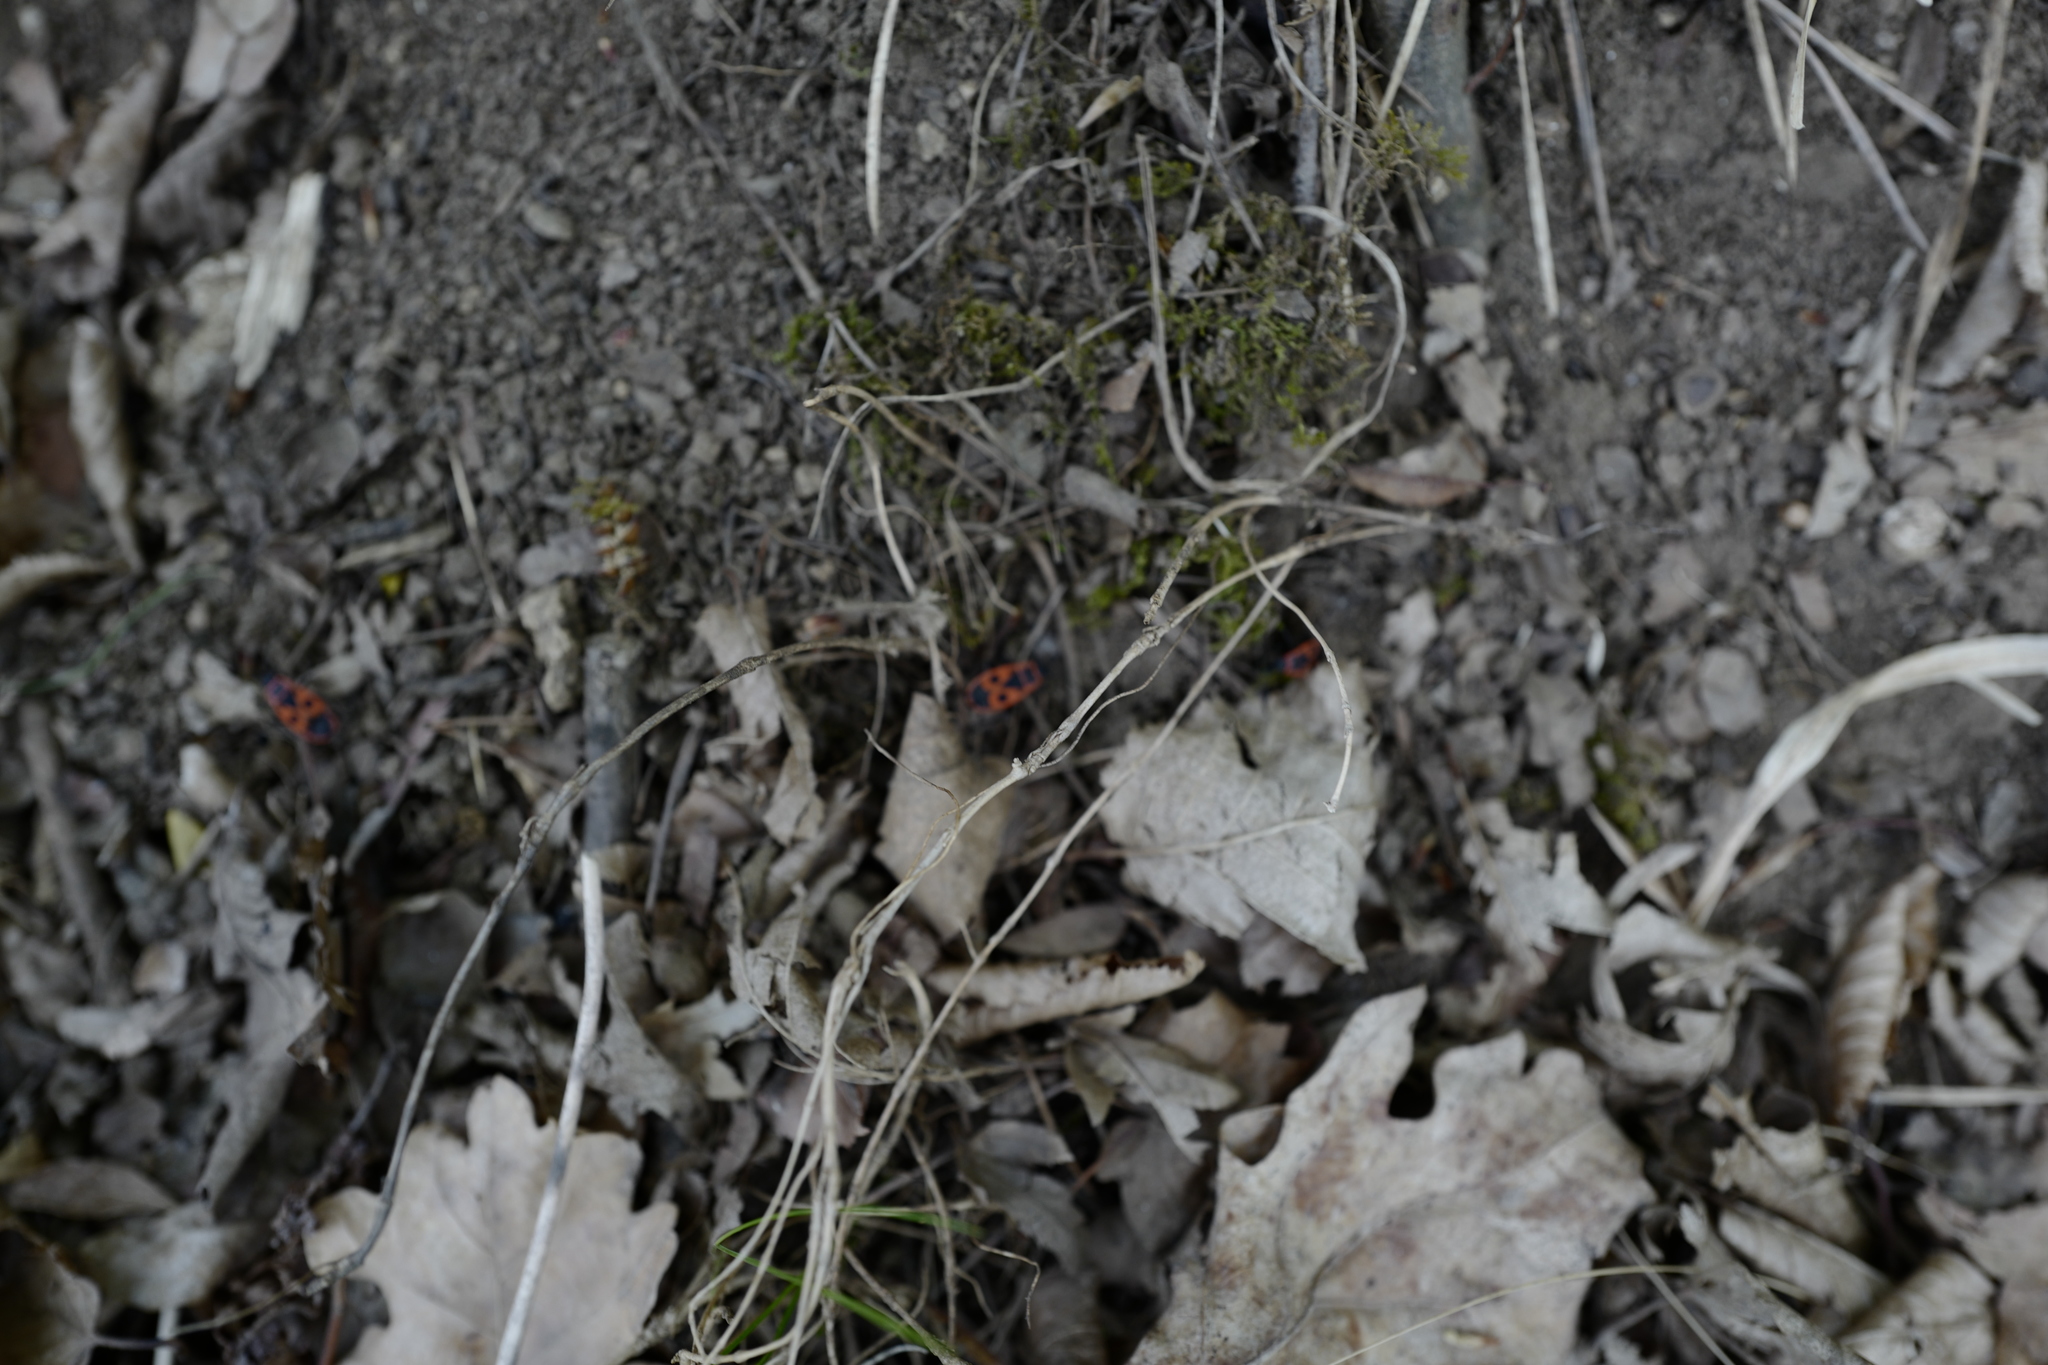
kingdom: Animalia
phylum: Arthropoda
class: Insecta
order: Hemiptera
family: Pyrrhocoridae
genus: Pyrrhocoris
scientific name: Pyrrhocoris apterus
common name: Firebug
